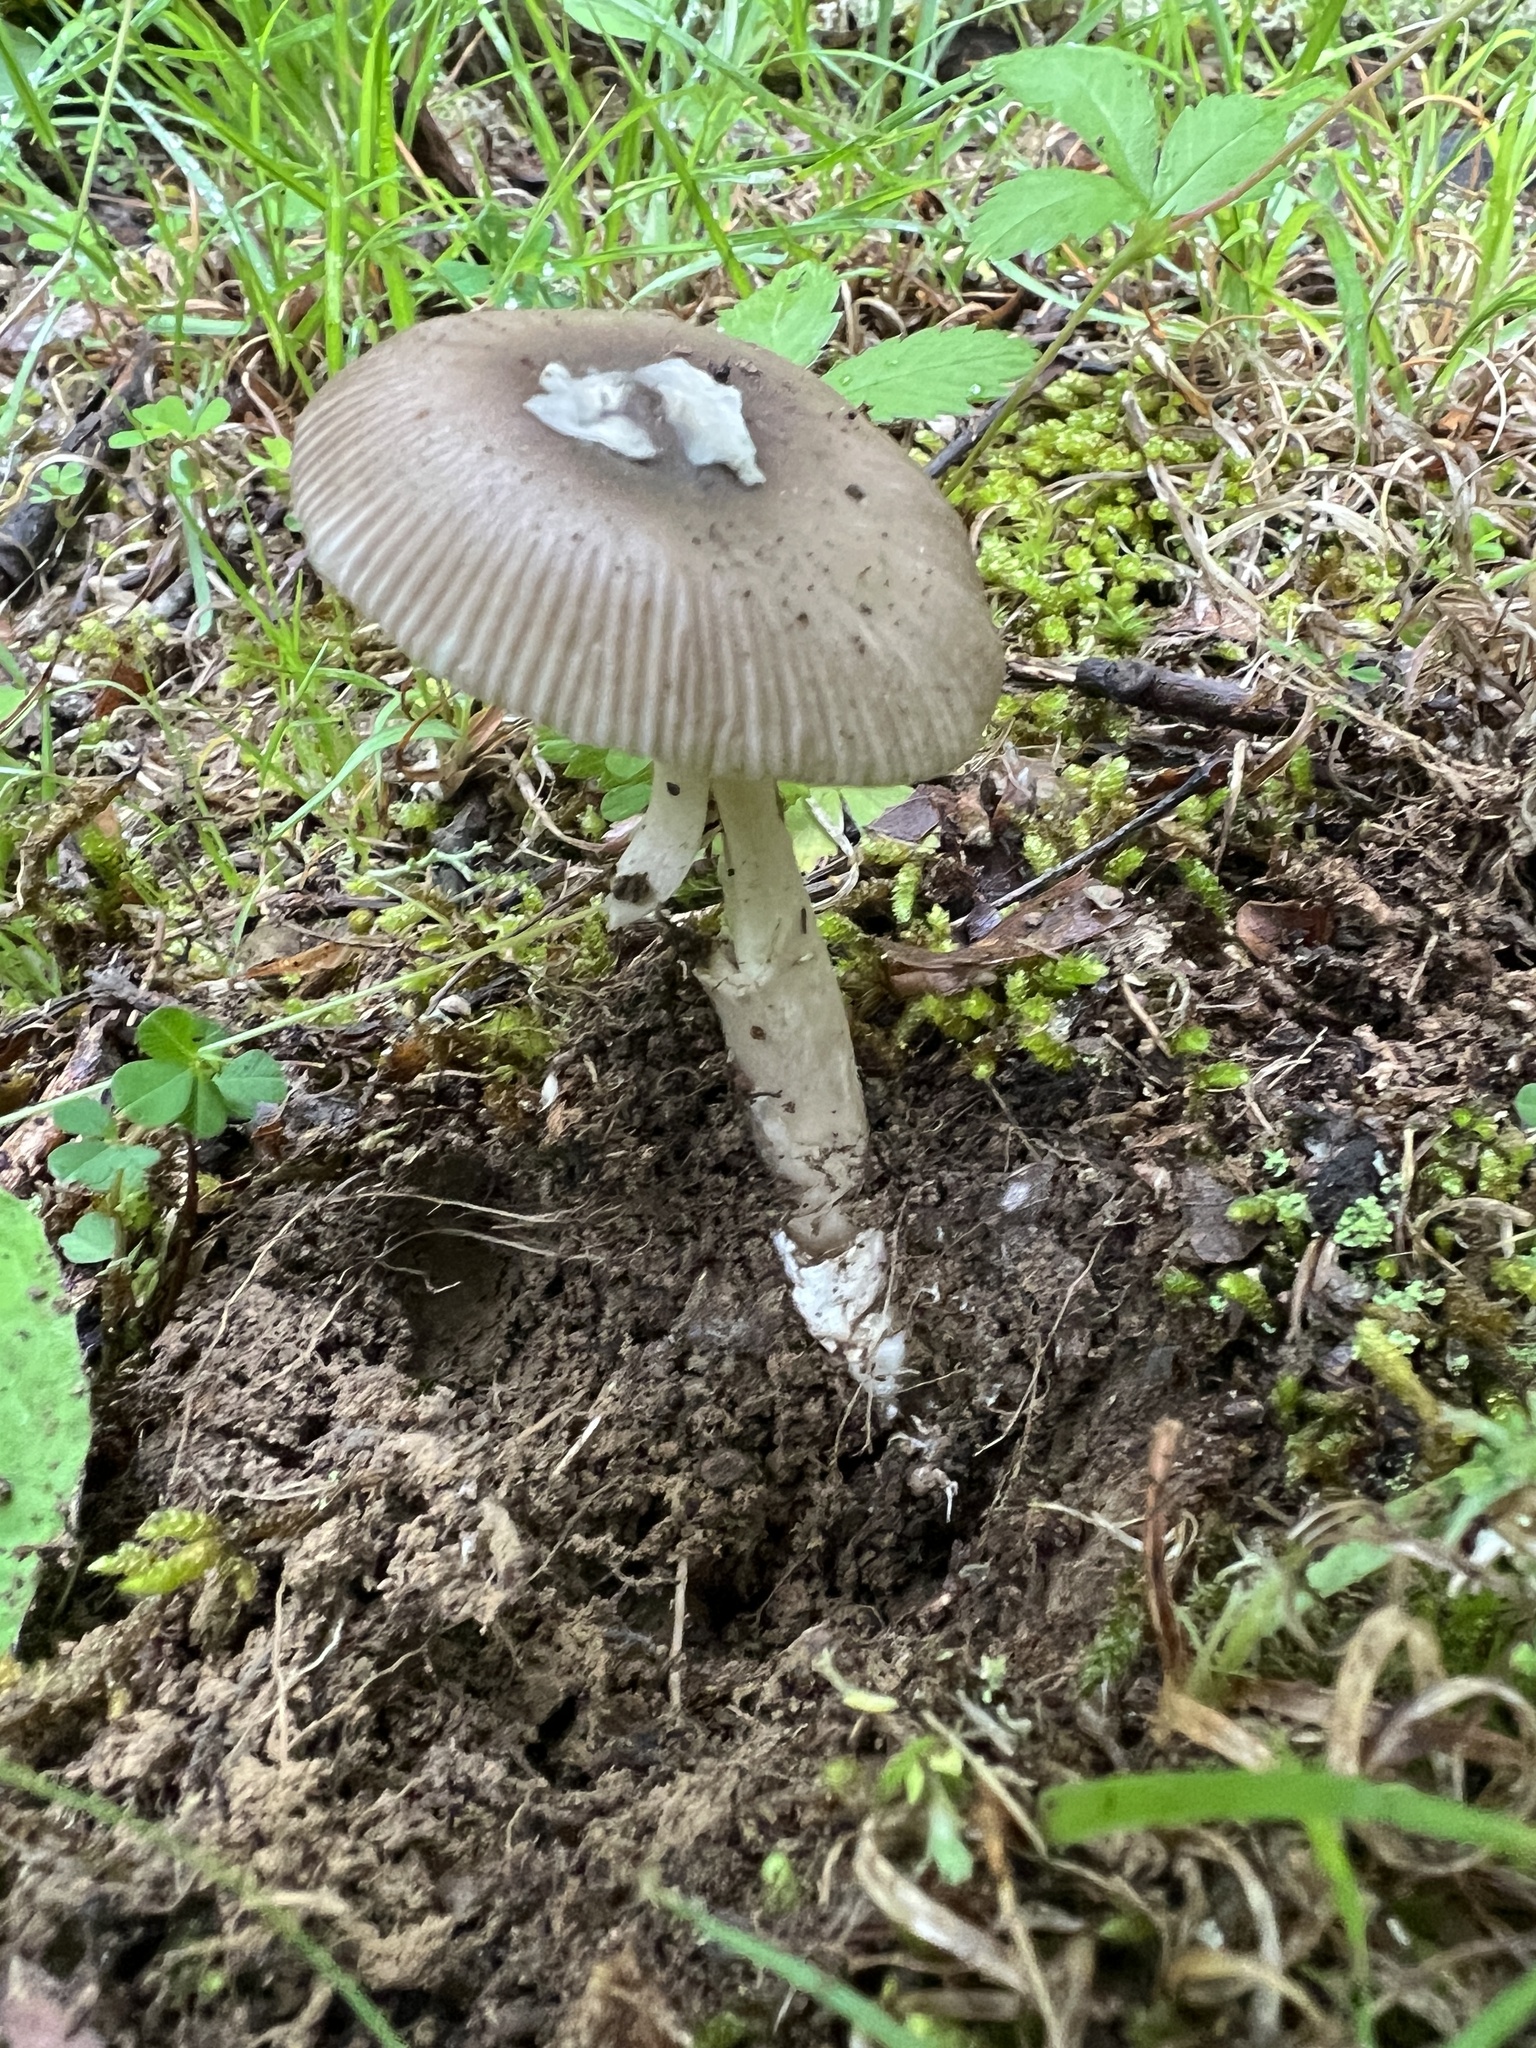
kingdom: Fungi
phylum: Basidiomycota
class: Agaricomycetes
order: Agaricales
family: Amanitaceae
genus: Amanita
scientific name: Amanita vaginata
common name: Grisette
